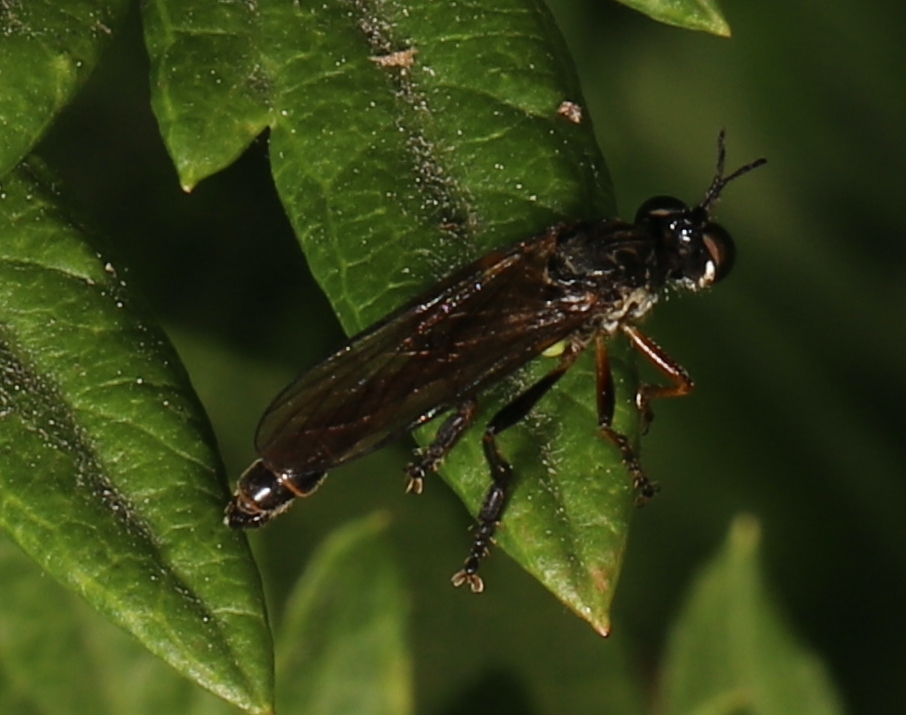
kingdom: Animalia
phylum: Arthropoda
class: Insecta
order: Diptera
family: Asilidae
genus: Dioctria
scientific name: Dioctria hyalipennis
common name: Stripe-legged robberfly
